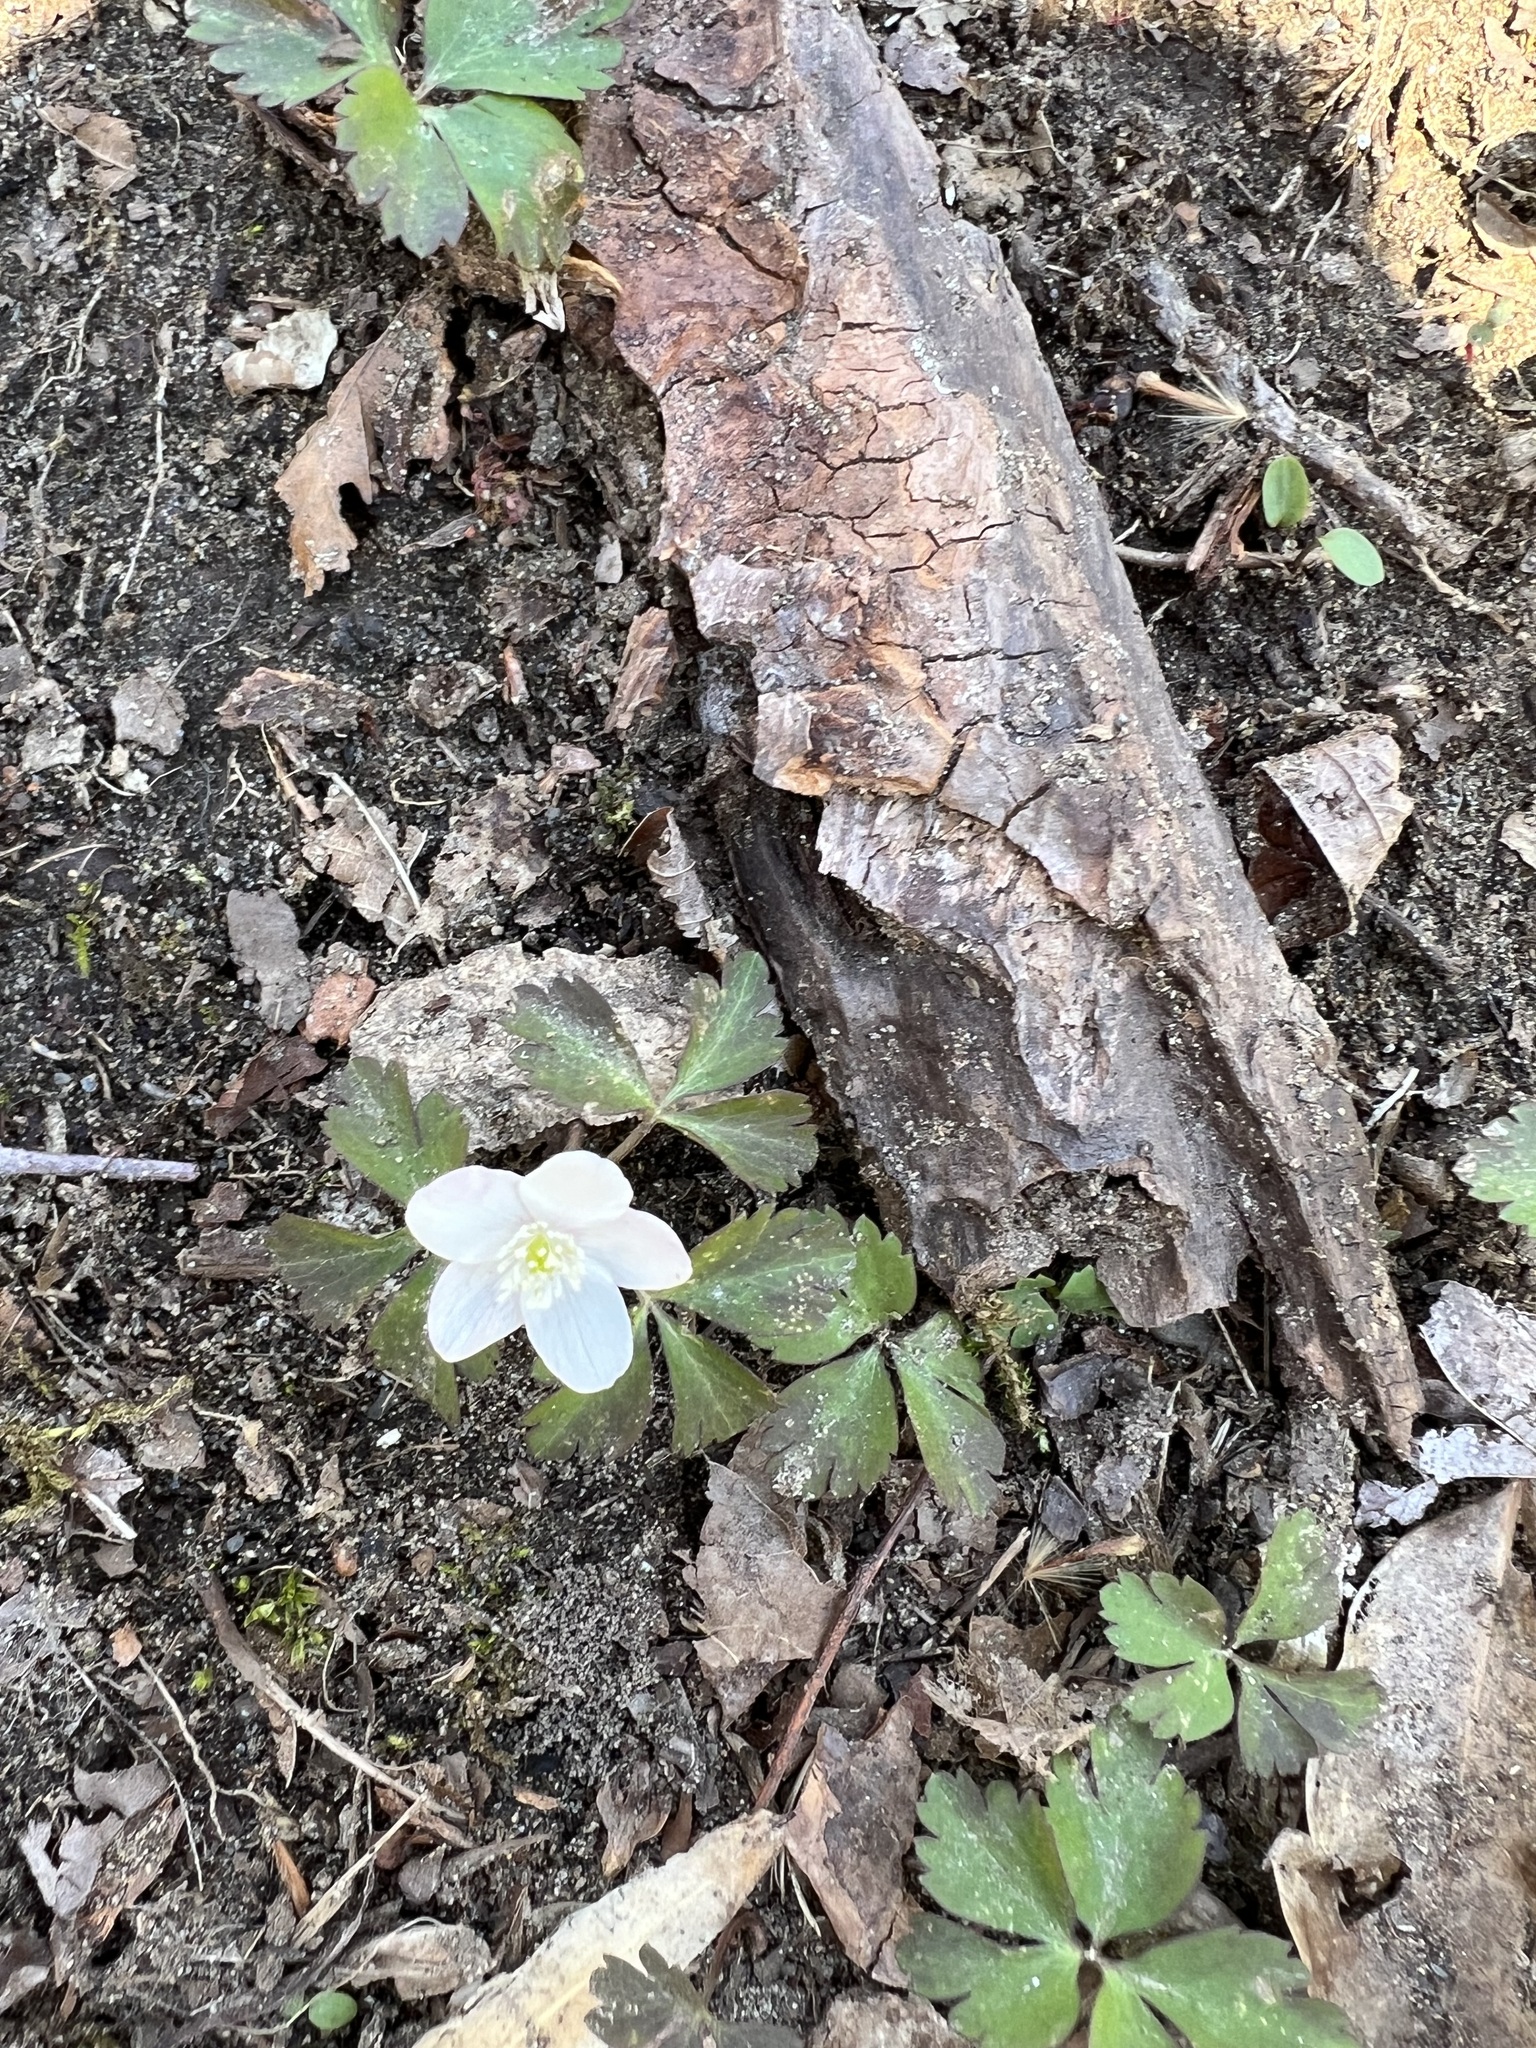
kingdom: Plantae
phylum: Tracheophyta
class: Magnoliopsida
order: Ranunculales
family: Ranunculaceae
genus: Anemone
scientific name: Anemone quinquefolia
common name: Wood anemone
